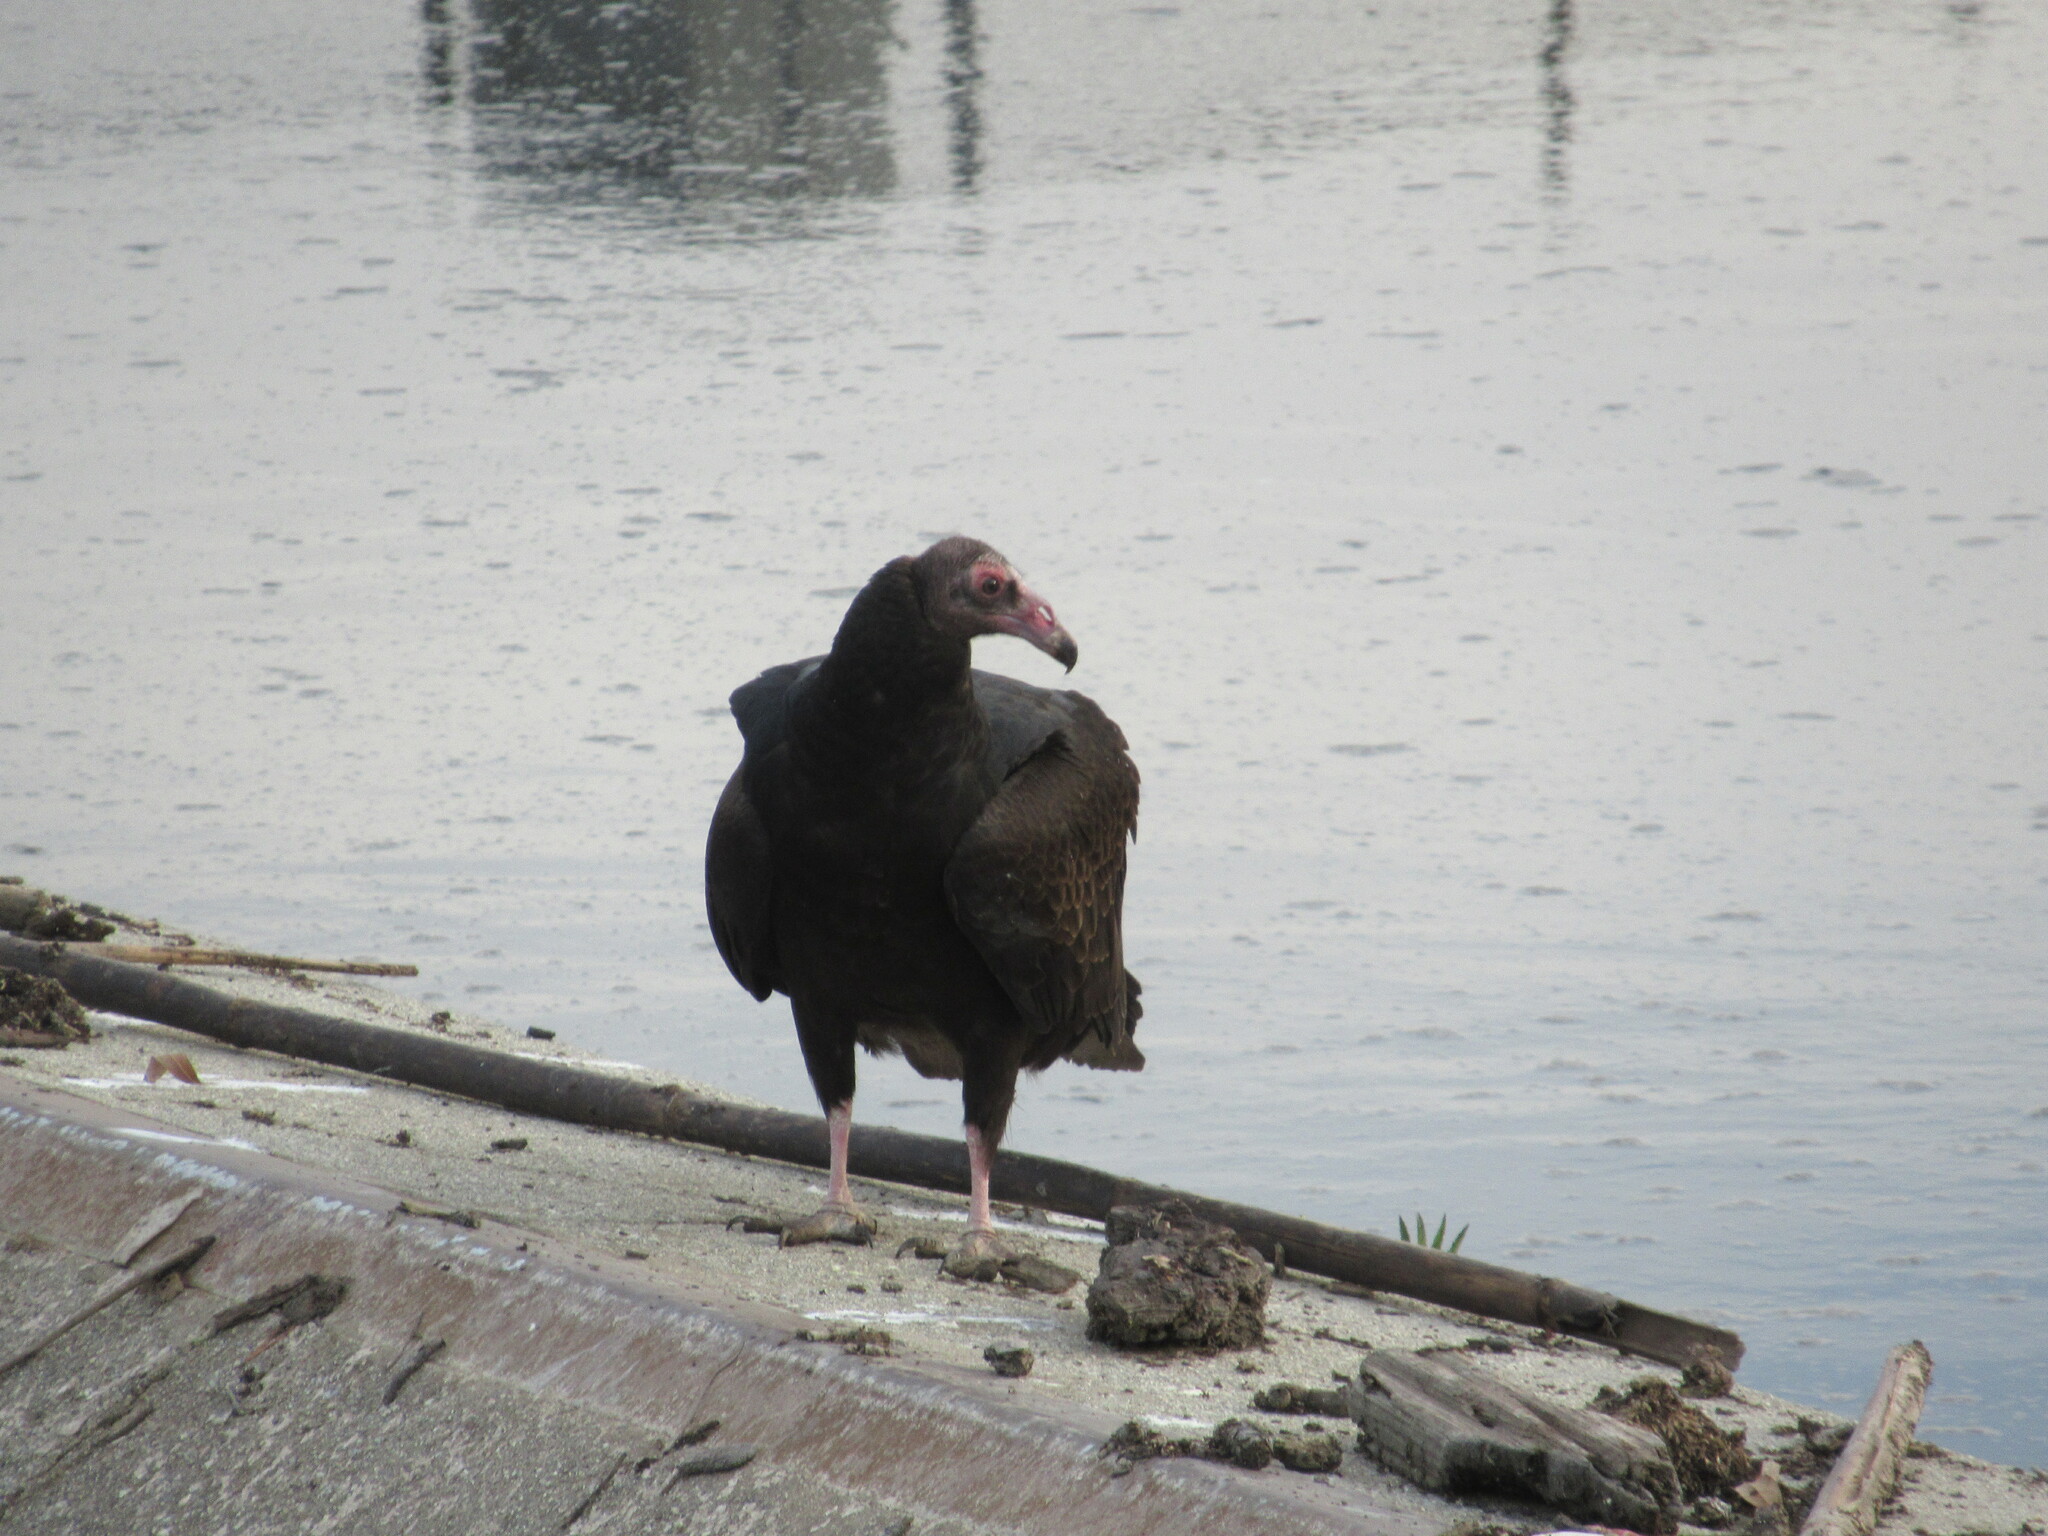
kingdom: Animalia
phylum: Chordata
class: Aves
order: Accipitriformes
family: Cathartidae
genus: Cathartes
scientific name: Cathartes aura
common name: Turkey vulture
